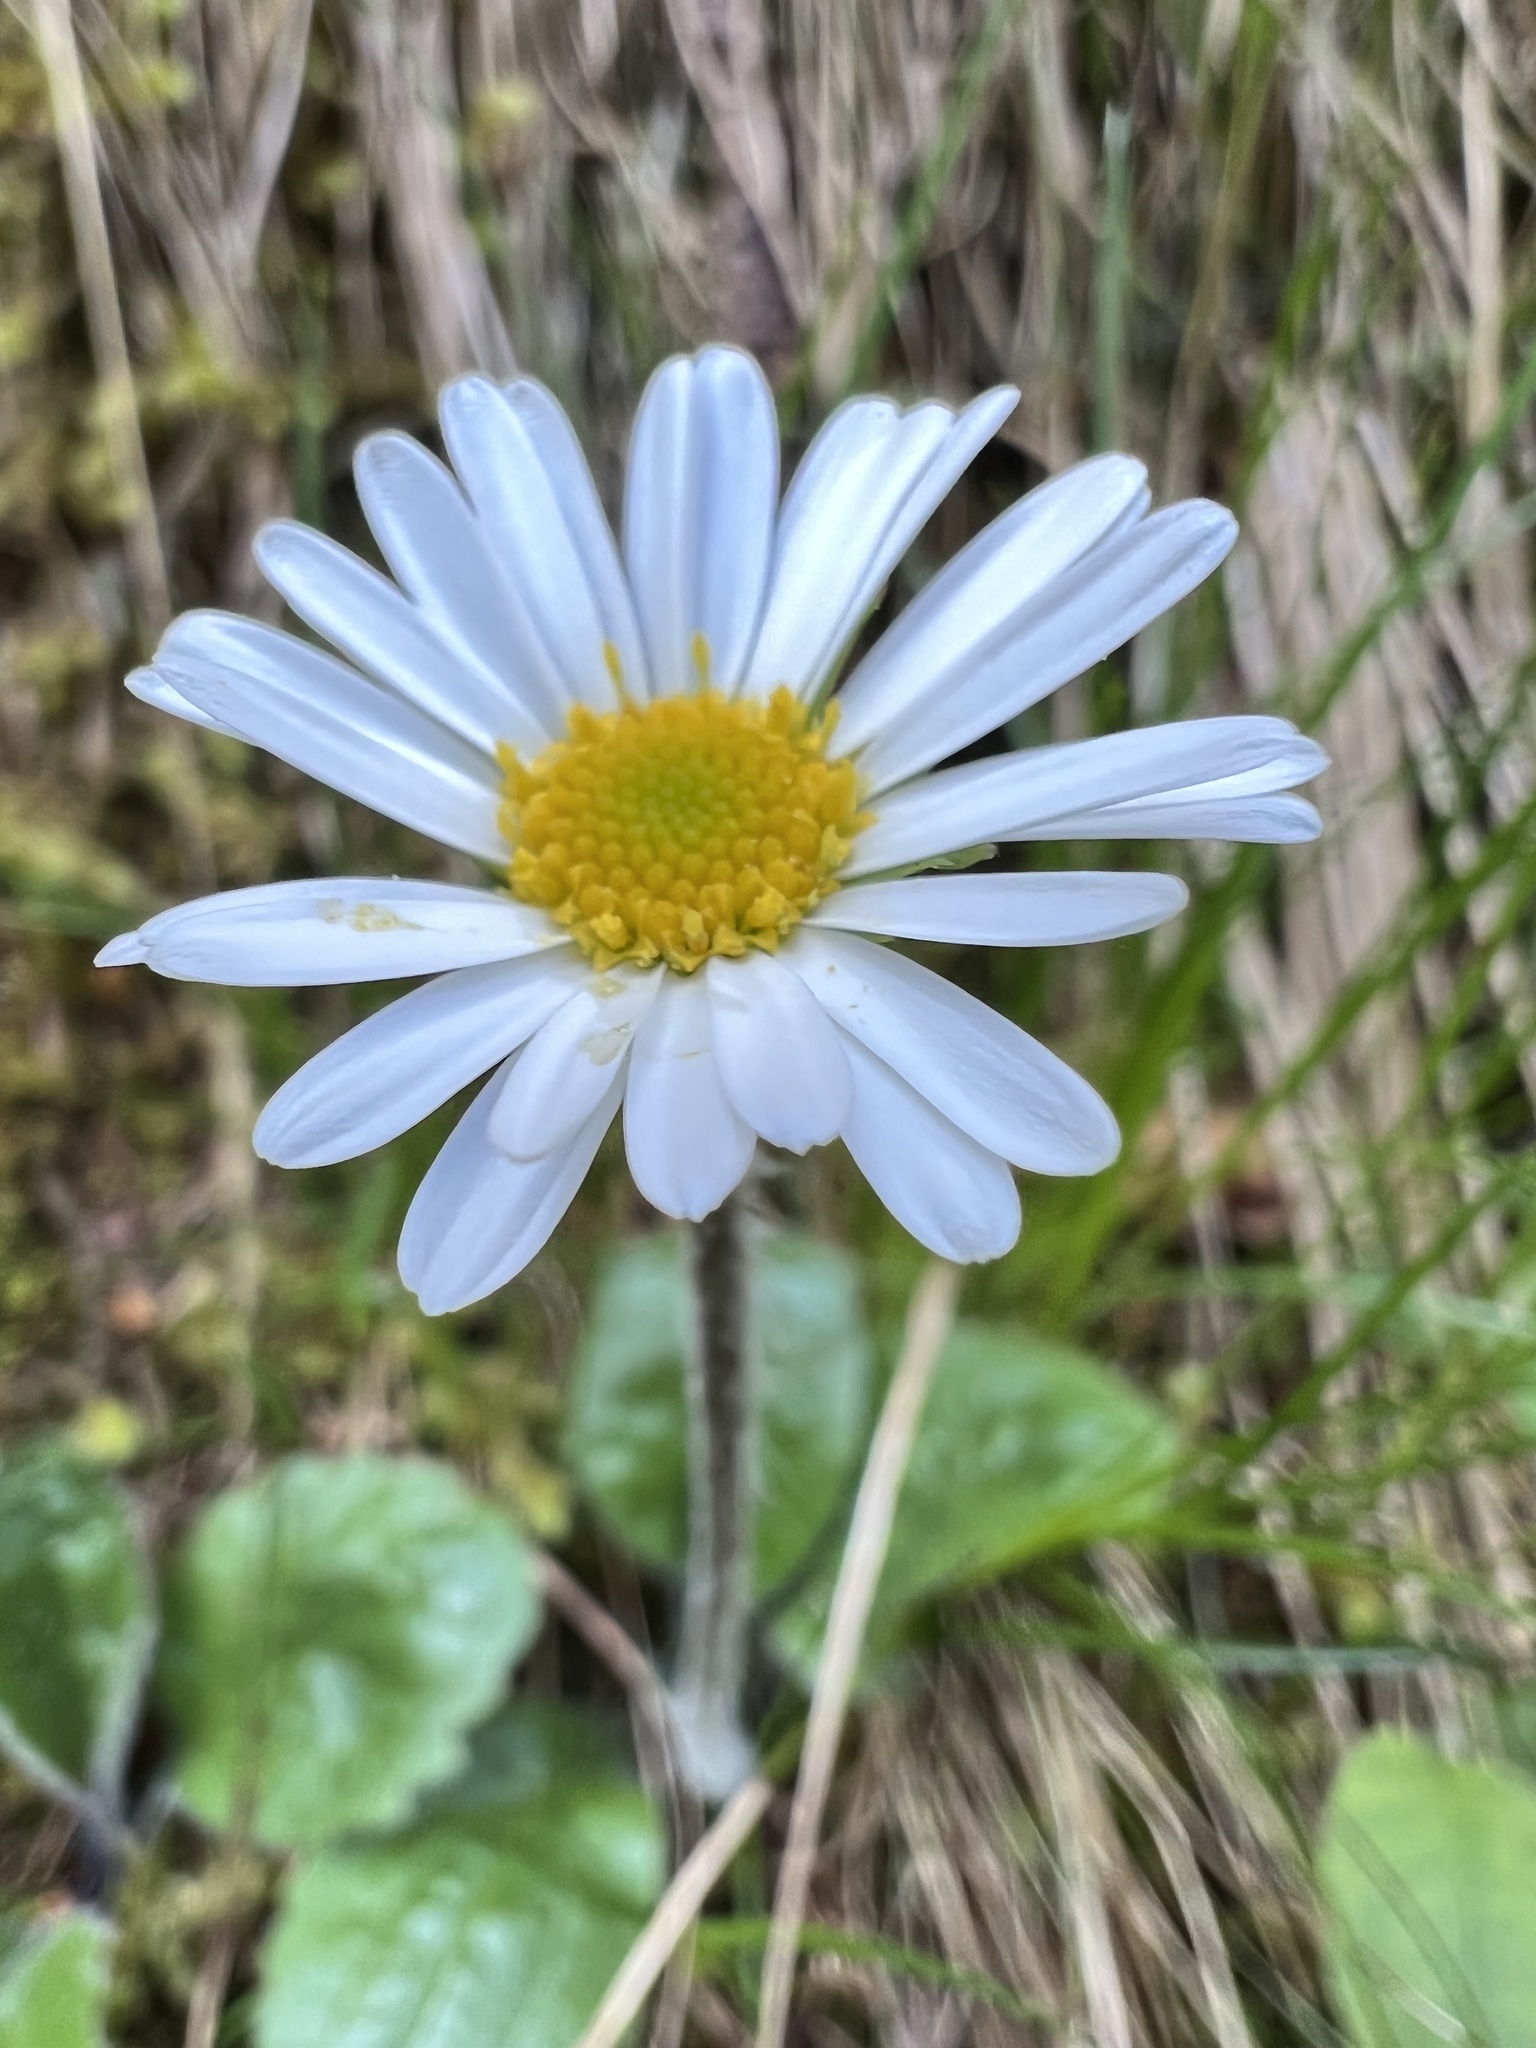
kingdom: Plantae
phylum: Tracheophyta
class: Magnoliopsida
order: Asterales
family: Asteraceae
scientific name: Asteraceae
